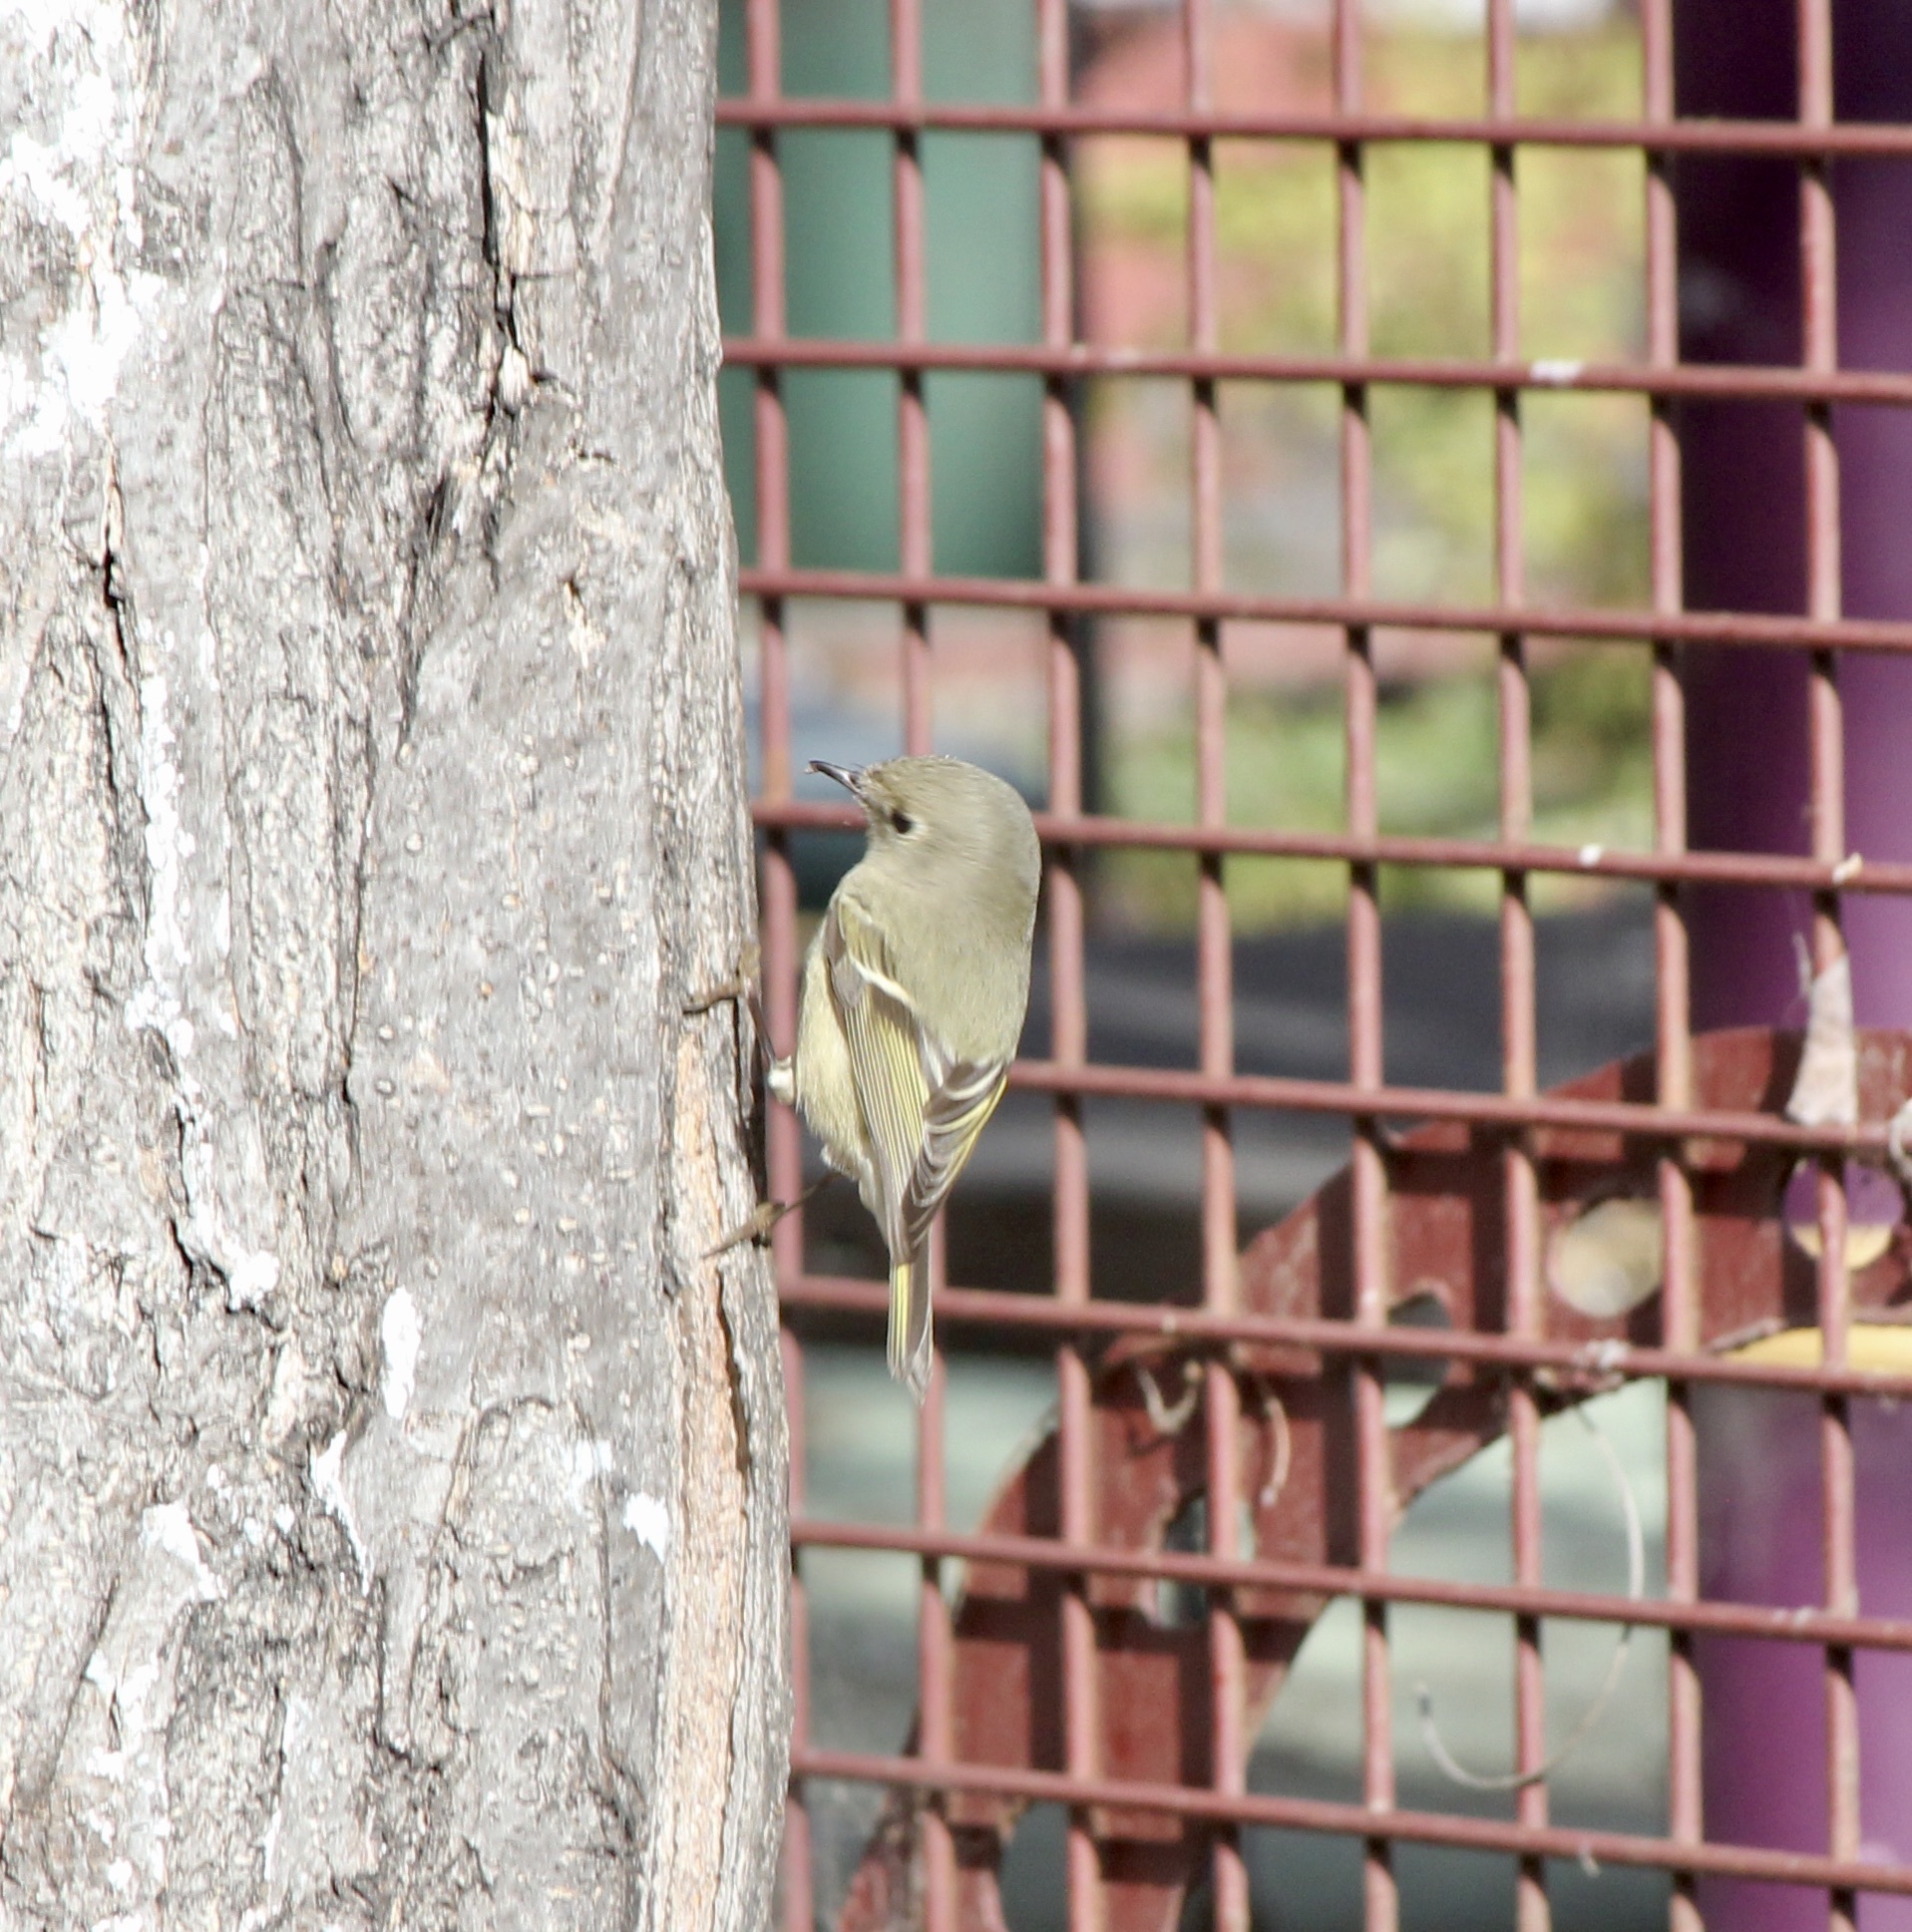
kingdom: Animalia
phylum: Chordata
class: Aves
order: Passeriformes
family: Regulidae
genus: Regulus
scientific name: Regulus calendula
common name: Ruby-crowned kinglet
